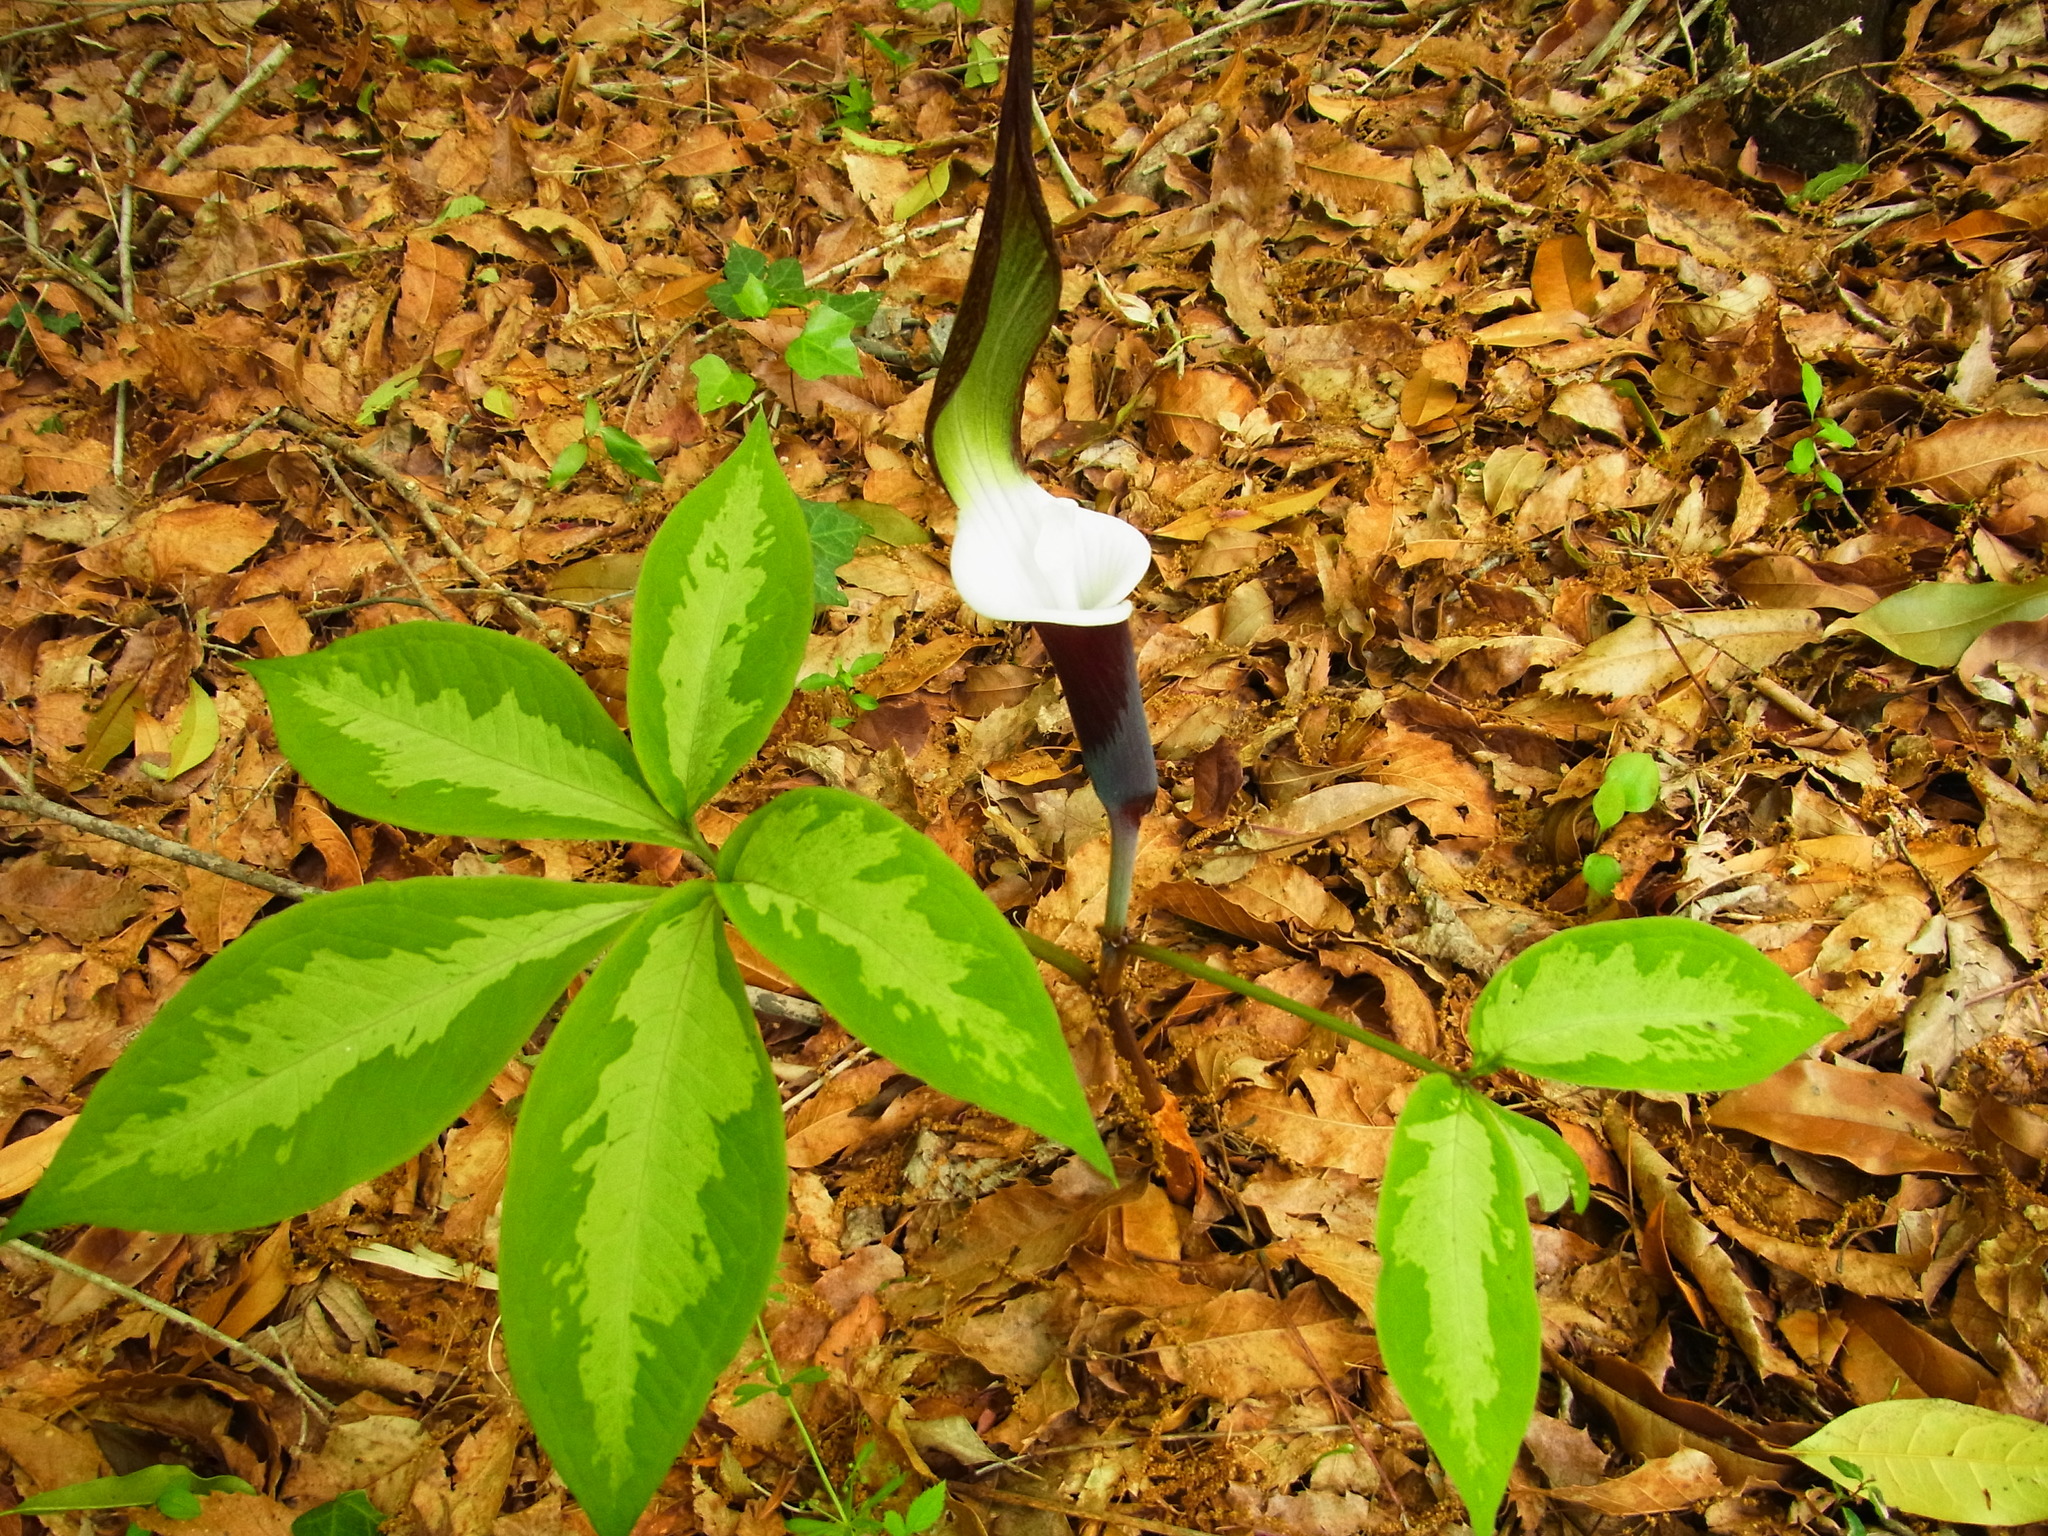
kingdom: Plantae
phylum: Tracheophyta
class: Liliopsida
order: Alismatales
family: Araceae
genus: Arisaema
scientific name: Arisaema sikokianum
